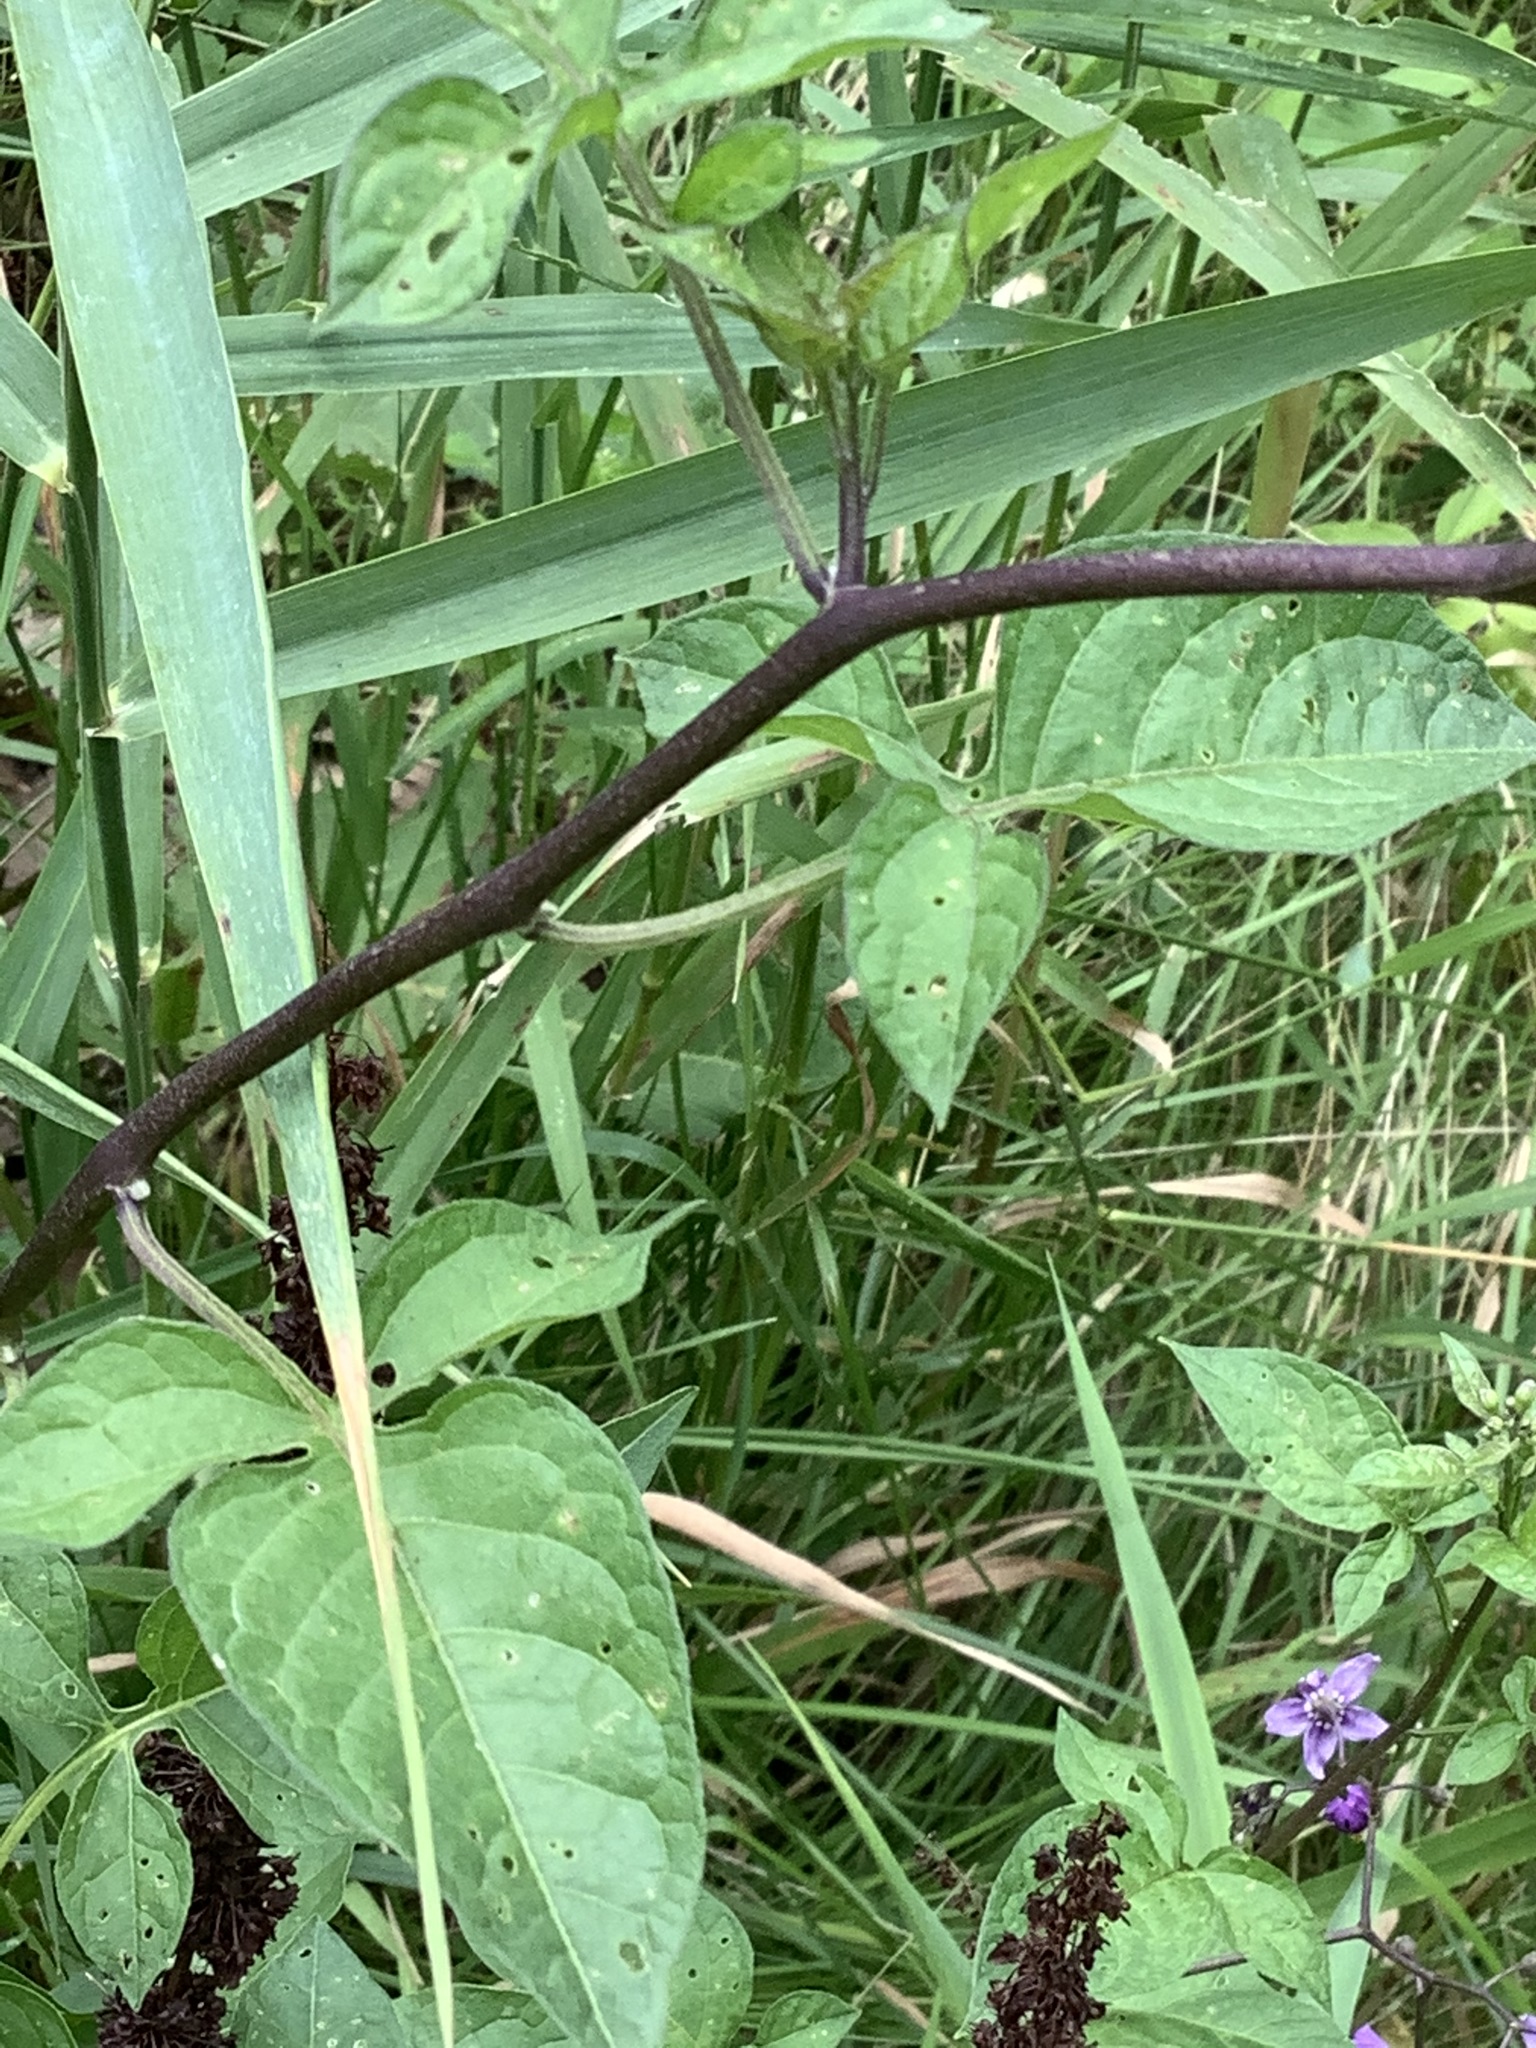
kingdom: Plantae
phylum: Tracheophyta
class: Magnoliopsida
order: Solanales
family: Solanaceae
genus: Solanum
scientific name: Solanum dulcamara
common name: Climbing nightshade
